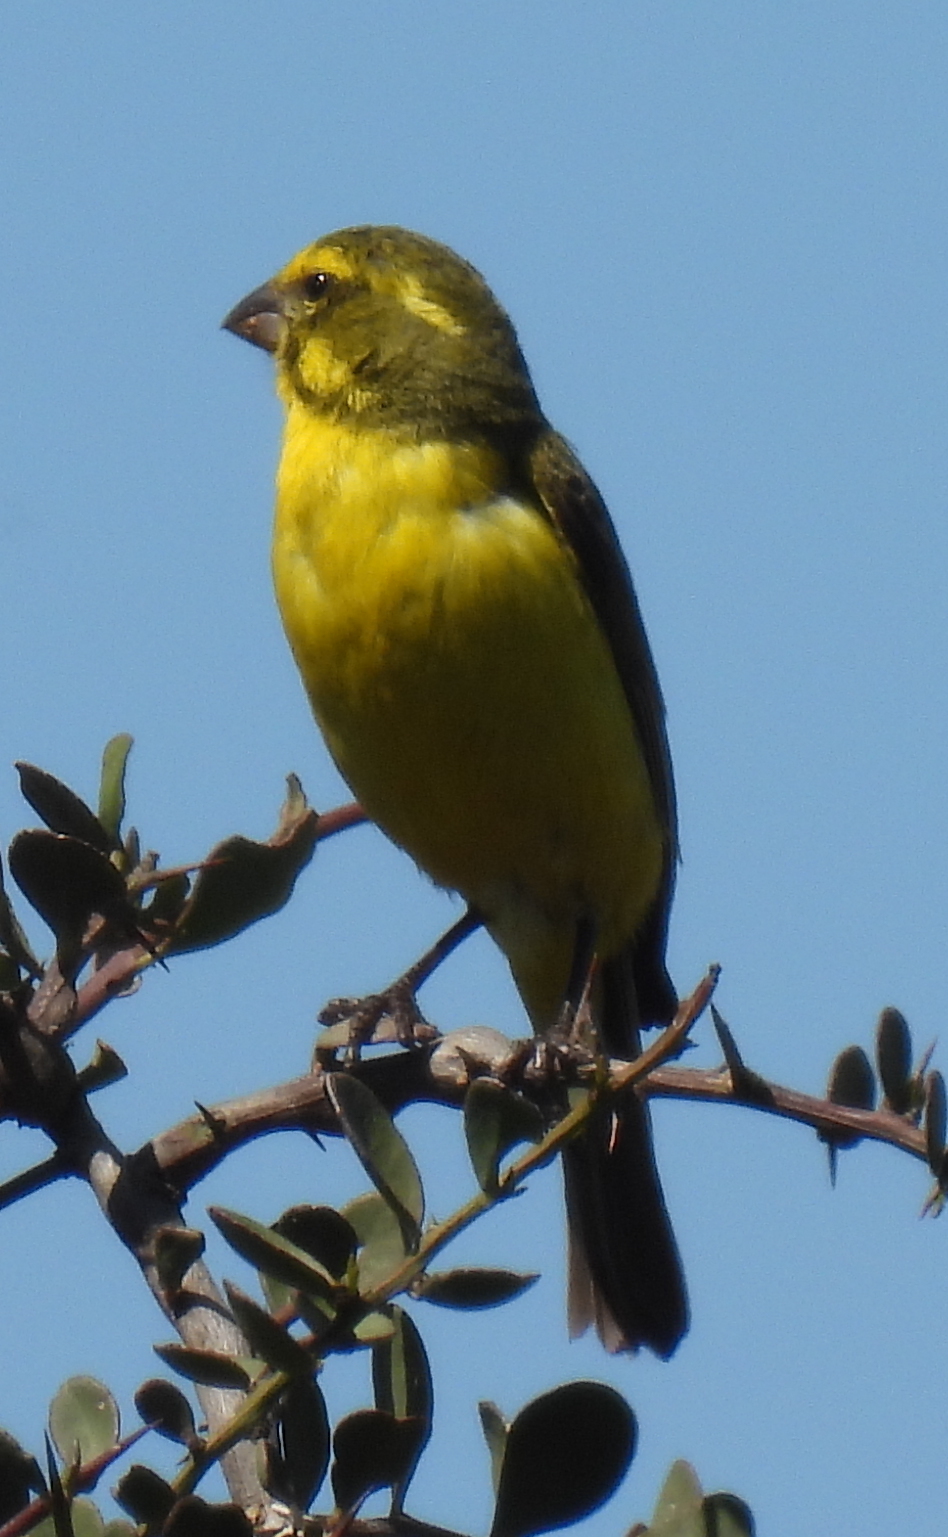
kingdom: Animalia
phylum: Chordata
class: Aves
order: Passeriformes
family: Fringillidae
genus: Crithagra
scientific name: Crithagra flaviventris
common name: Yellow canary
